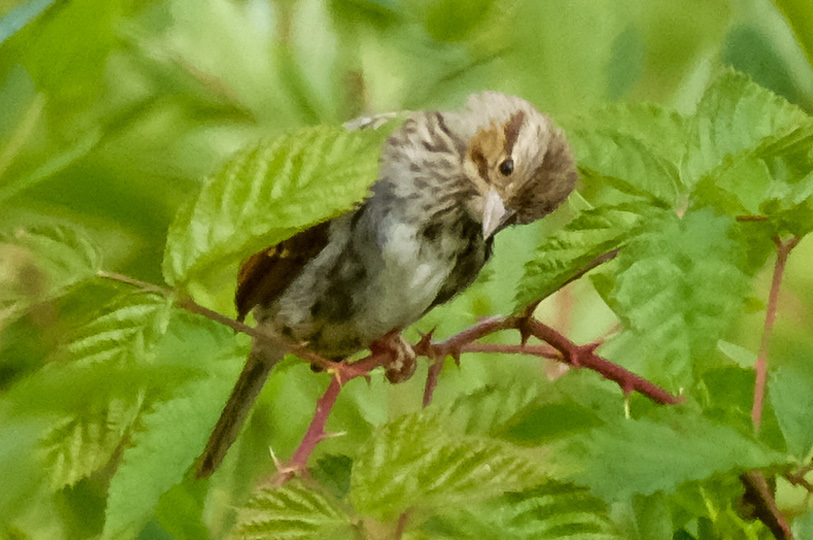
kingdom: Animalia
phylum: Chordata
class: Aves
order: Passeriformes
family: Passerellidae
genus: Melospiza
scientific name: Melospiza melodia
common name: Song sparrow
